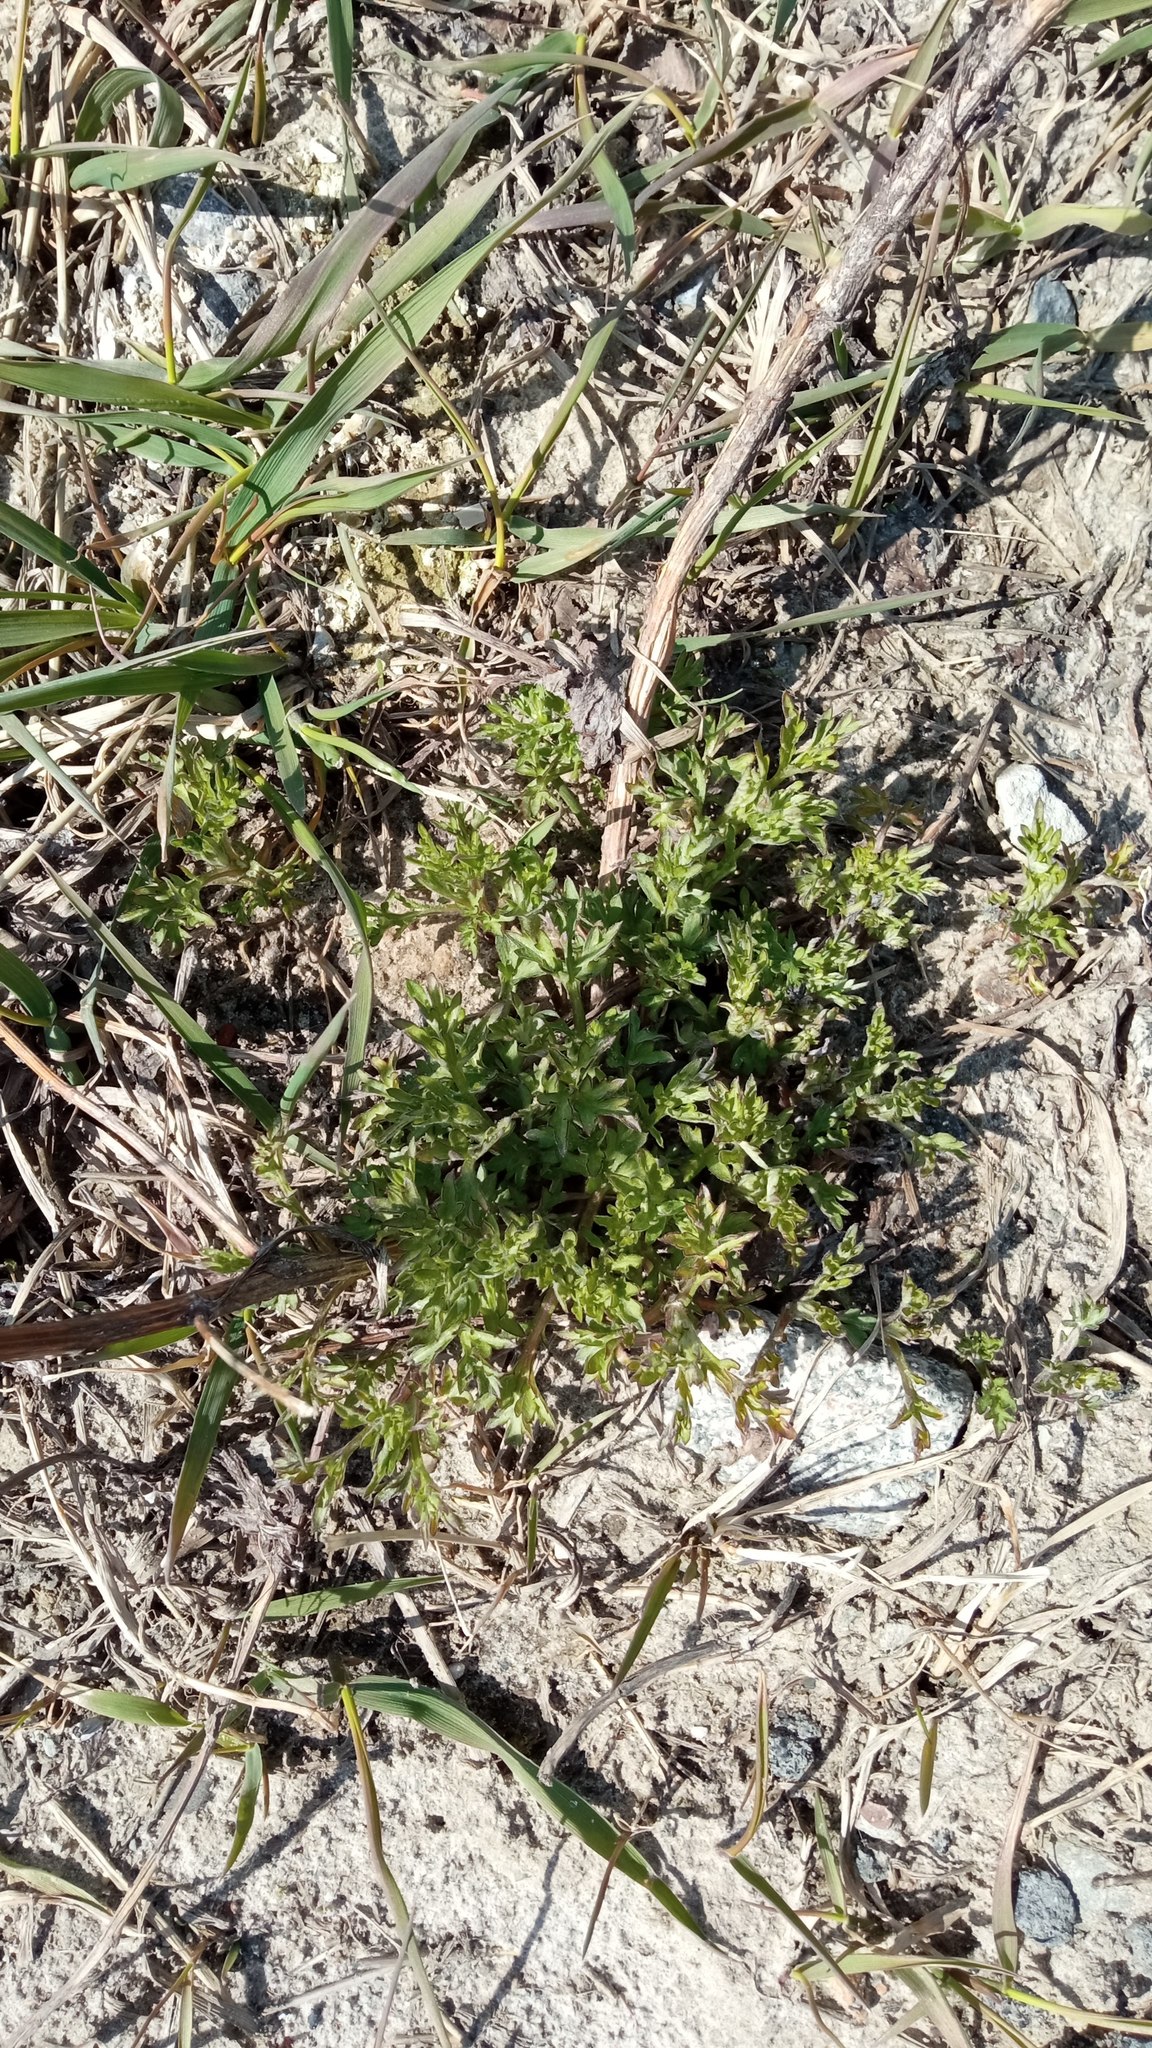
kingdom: Plantae
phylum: Tracheophyta
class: Magnoliopsida
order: Asterales
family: Asteraceae
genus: Artemisia
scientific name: Artemisia vulgaris
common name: Mugwort
